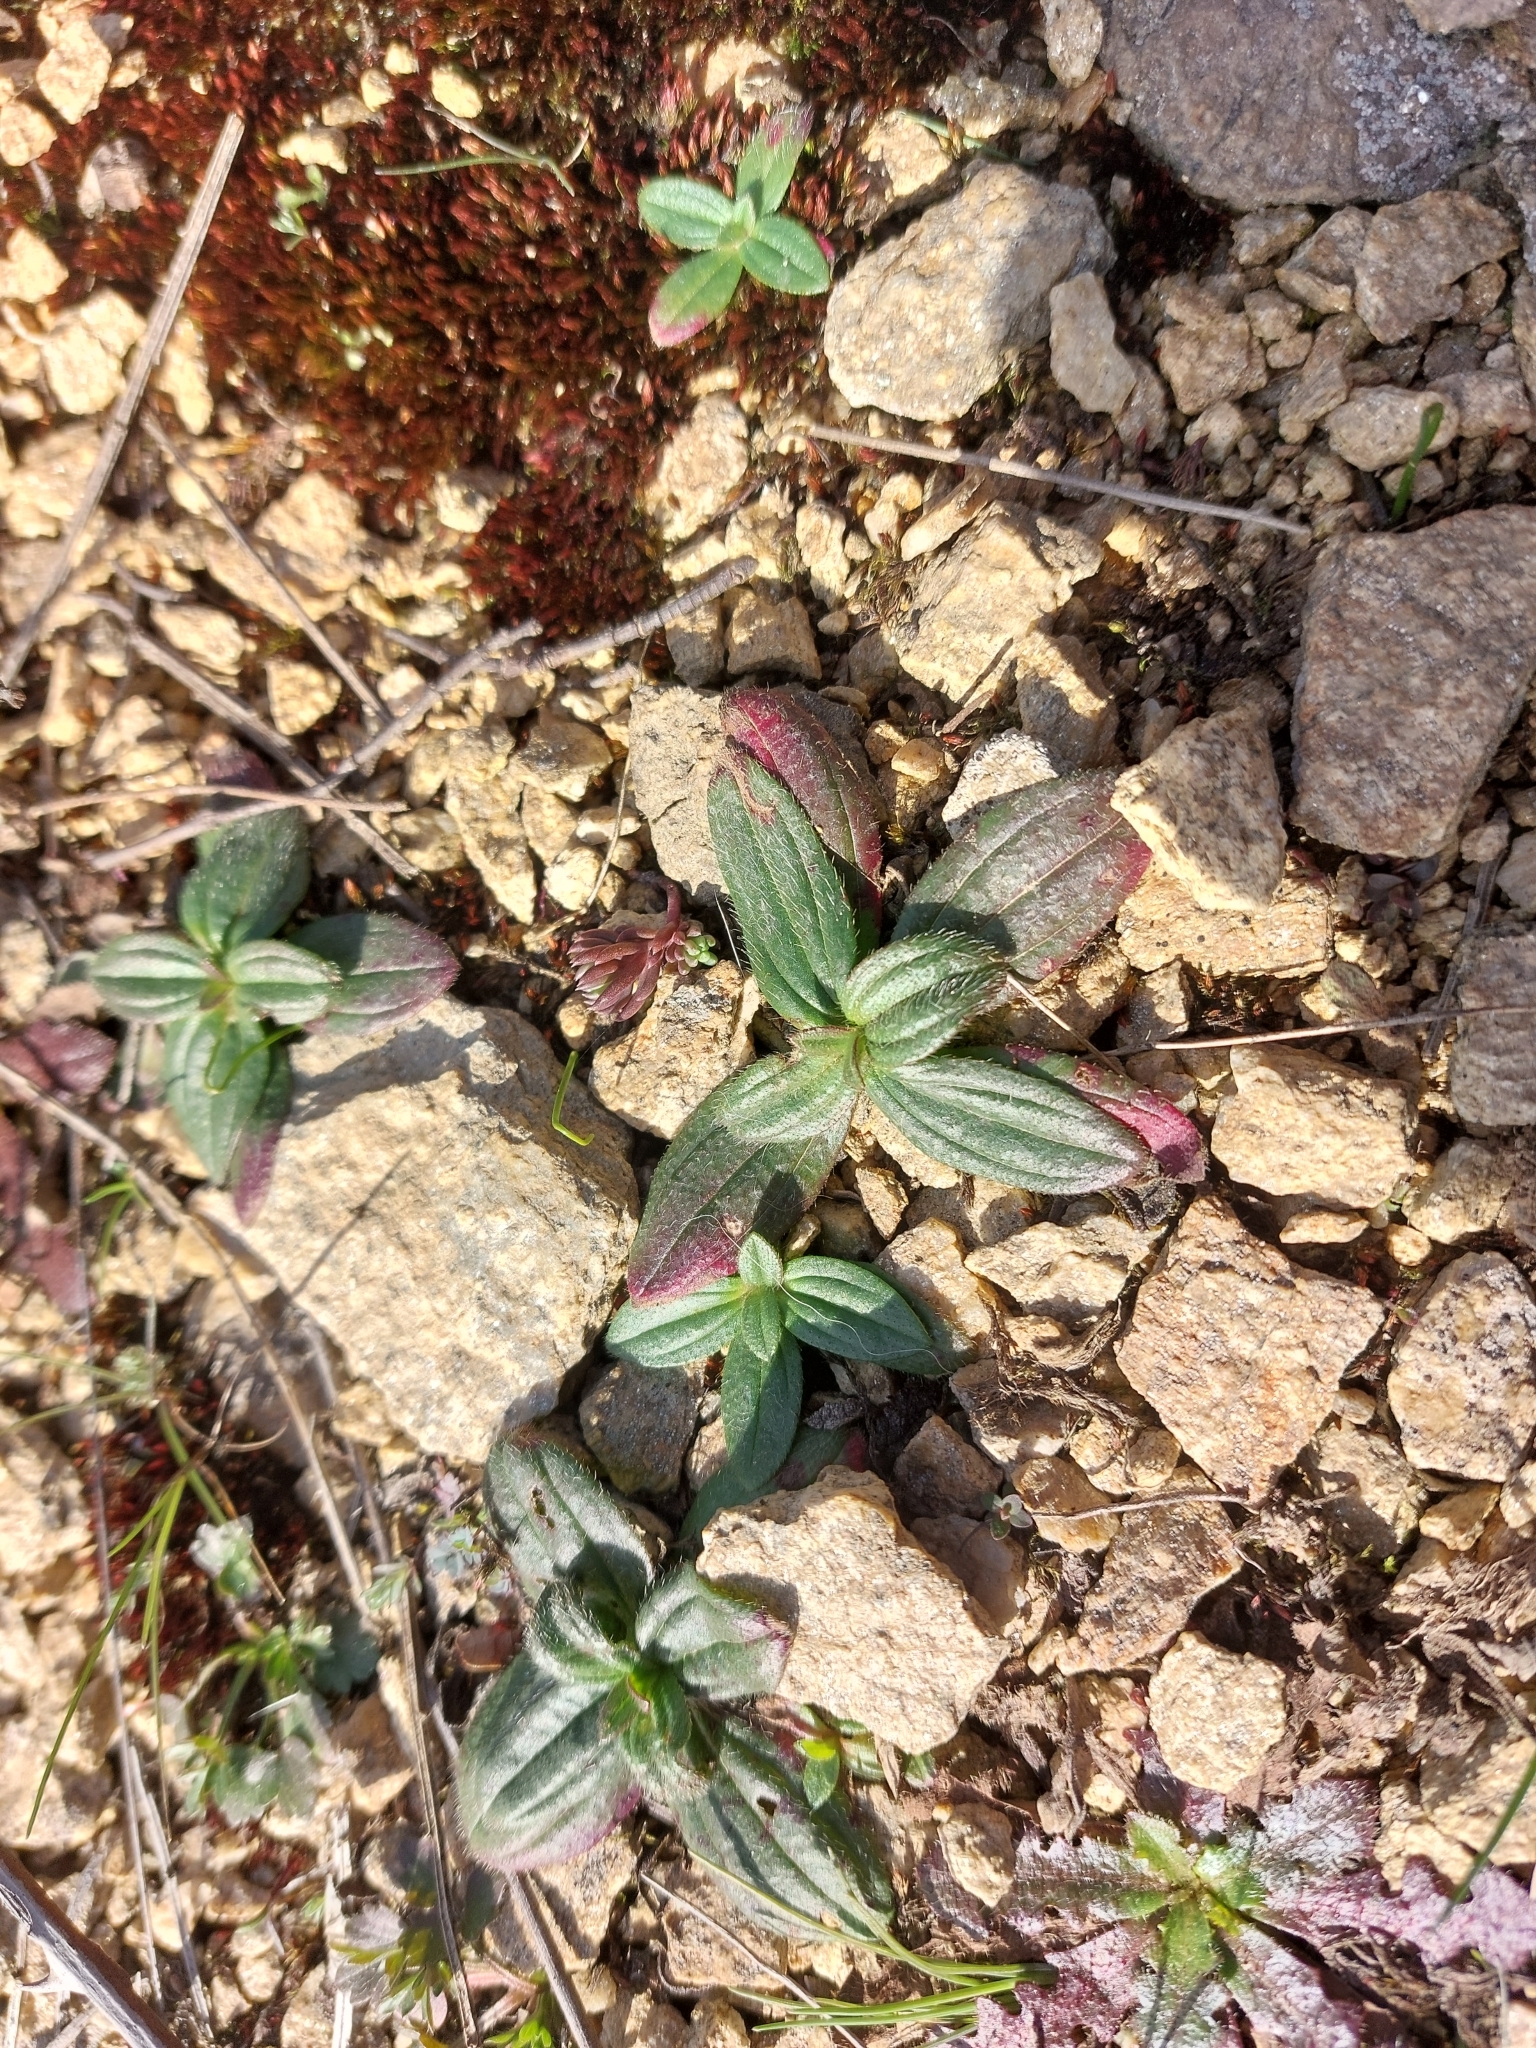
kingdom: Plantae
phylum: Tracheophyta
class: Magnoliopsida
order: Malvales
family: Cistaceae
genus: Tuberaria
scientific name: Tuberaria guttata
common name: Spotted rock-rose
